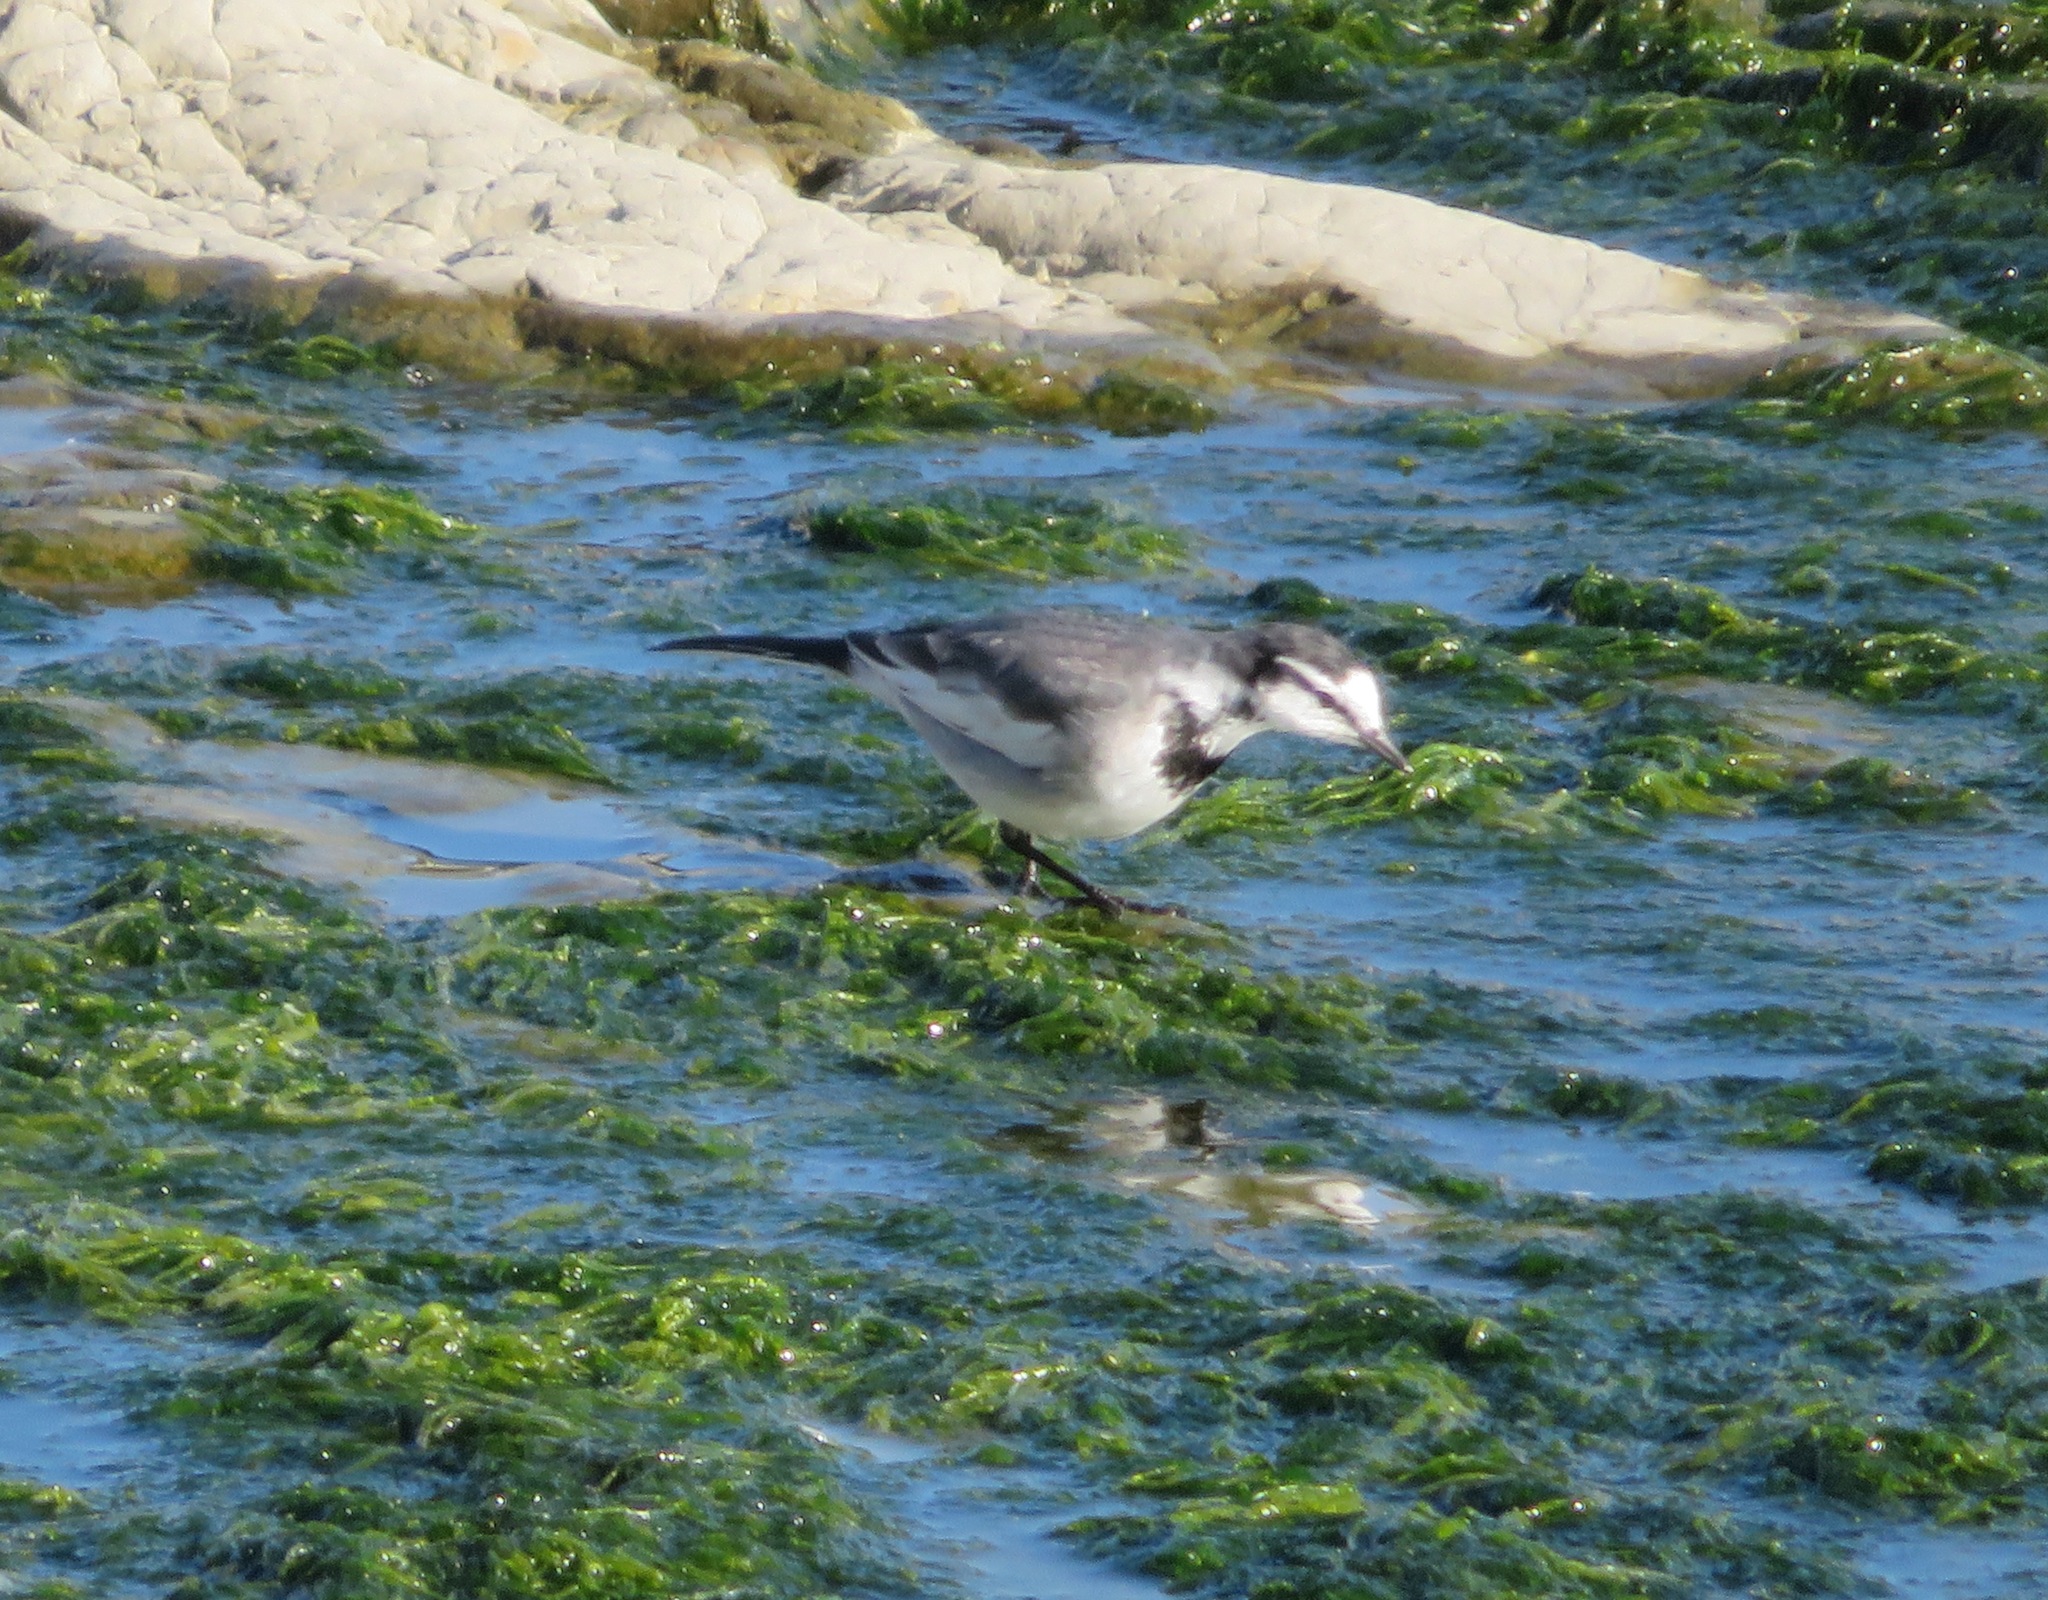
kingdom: Animalia
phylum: Chordata
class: Aves
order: Passeriformes
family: Motacillidae
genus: Motacilla
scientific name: Motacilla alba
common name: White wagtail
